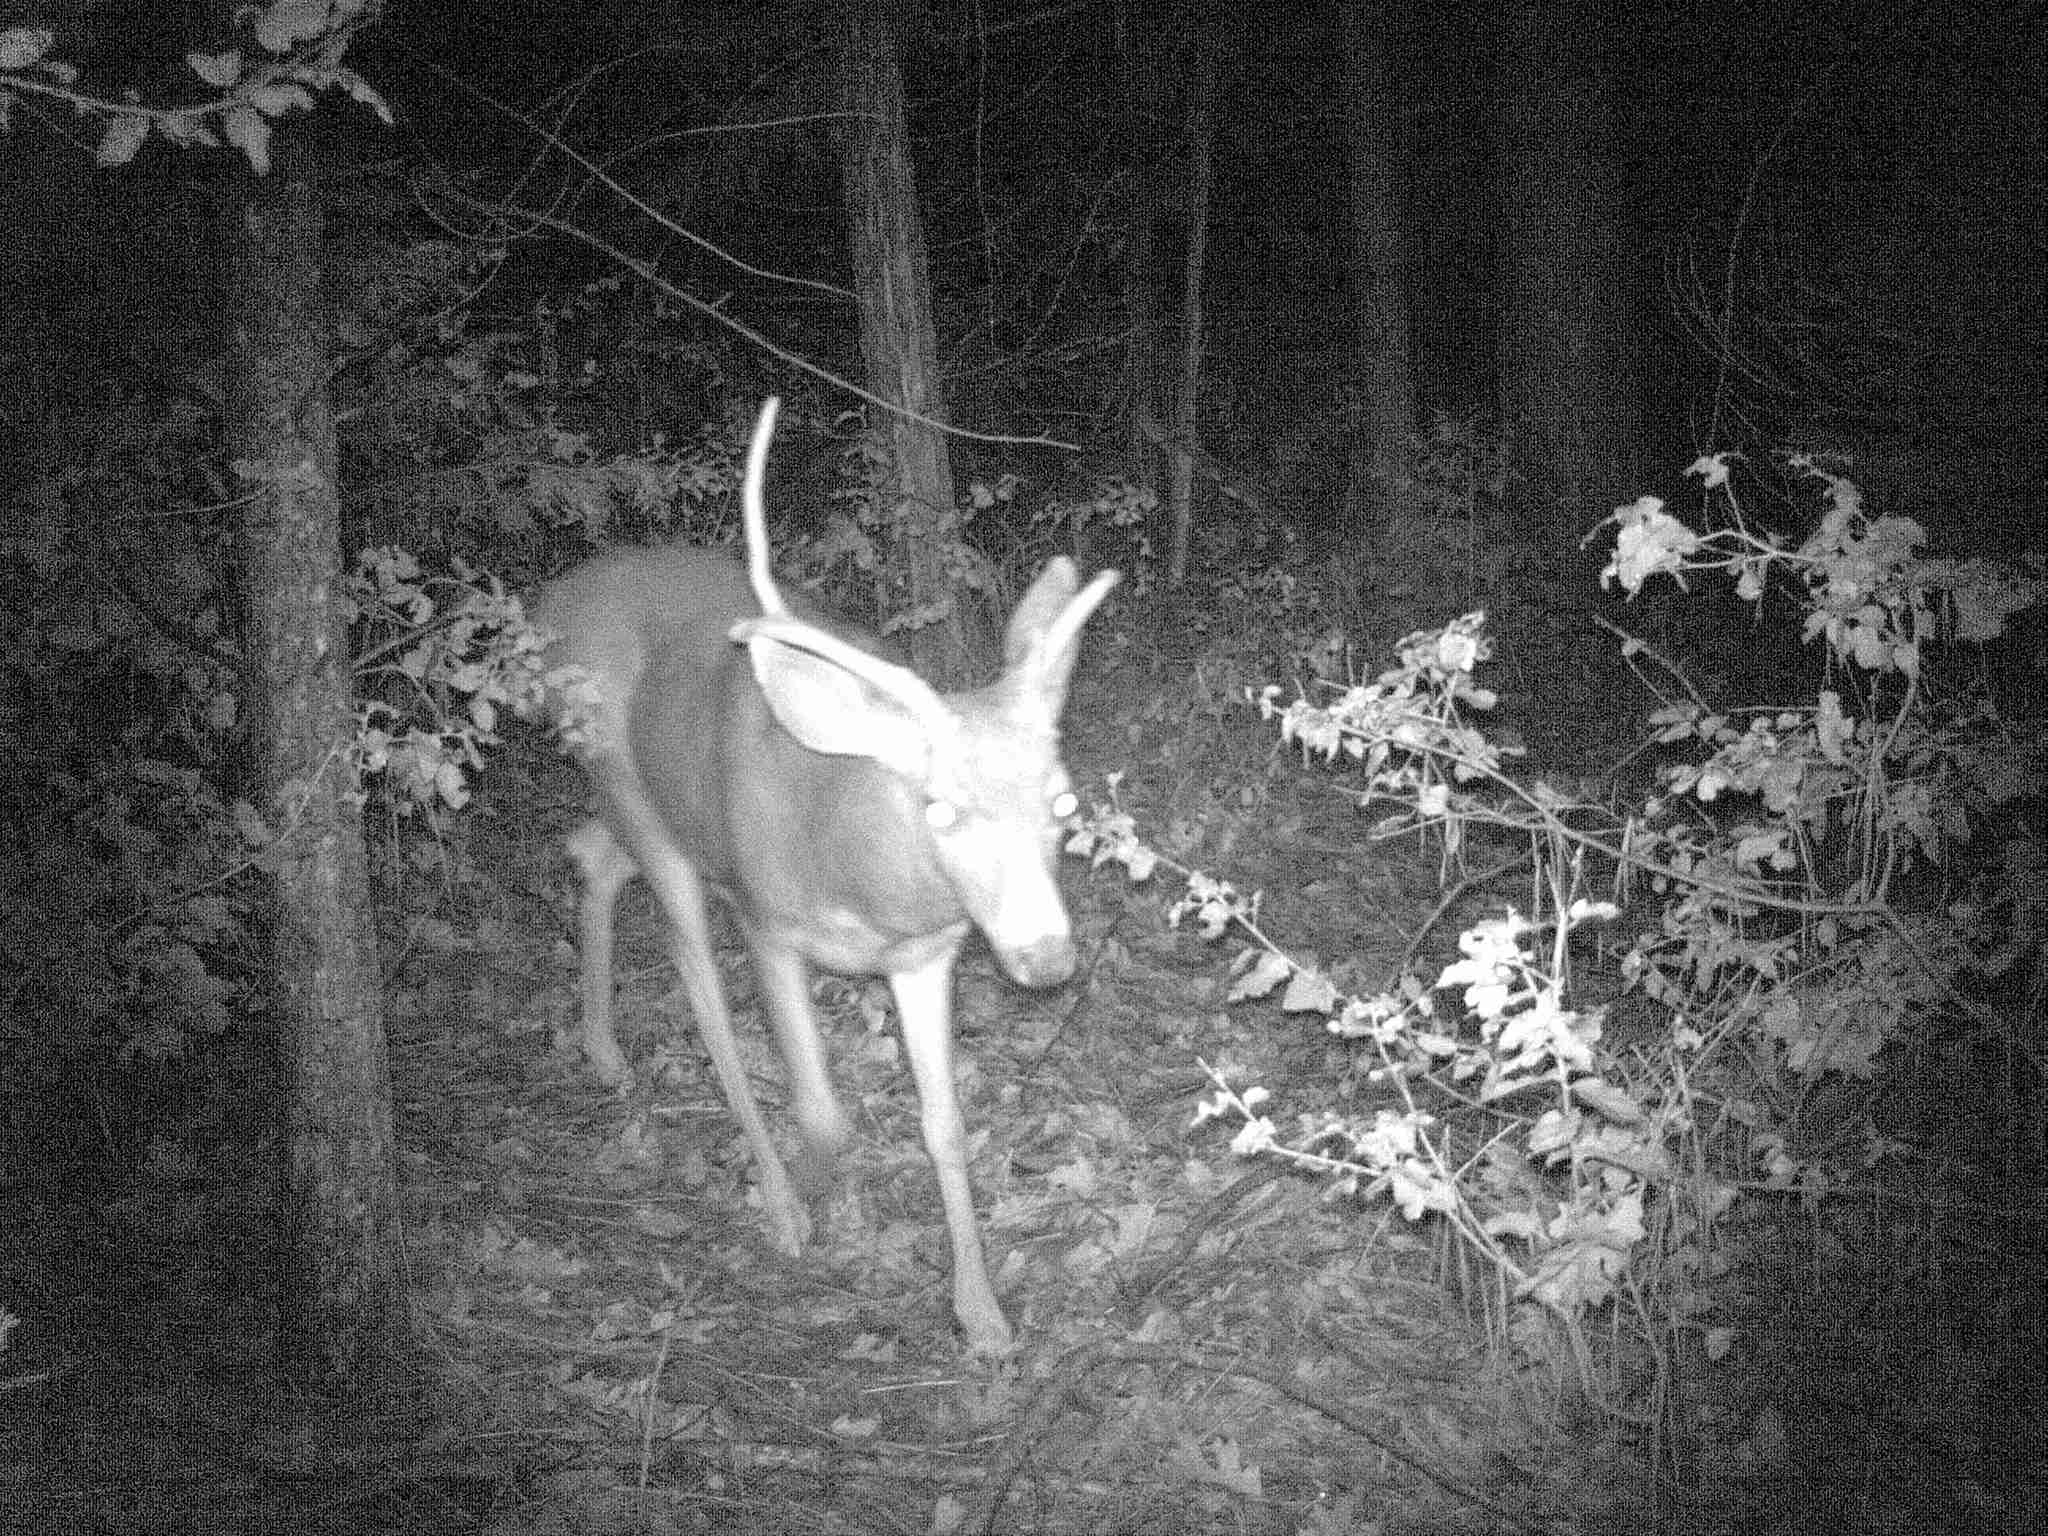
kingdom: Animalia
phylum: Chordata
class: Mammalia
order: Artiodactyla
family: Cervidae
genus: Odocoileus
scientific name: Odocoileus hemionus
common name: Mule deer
